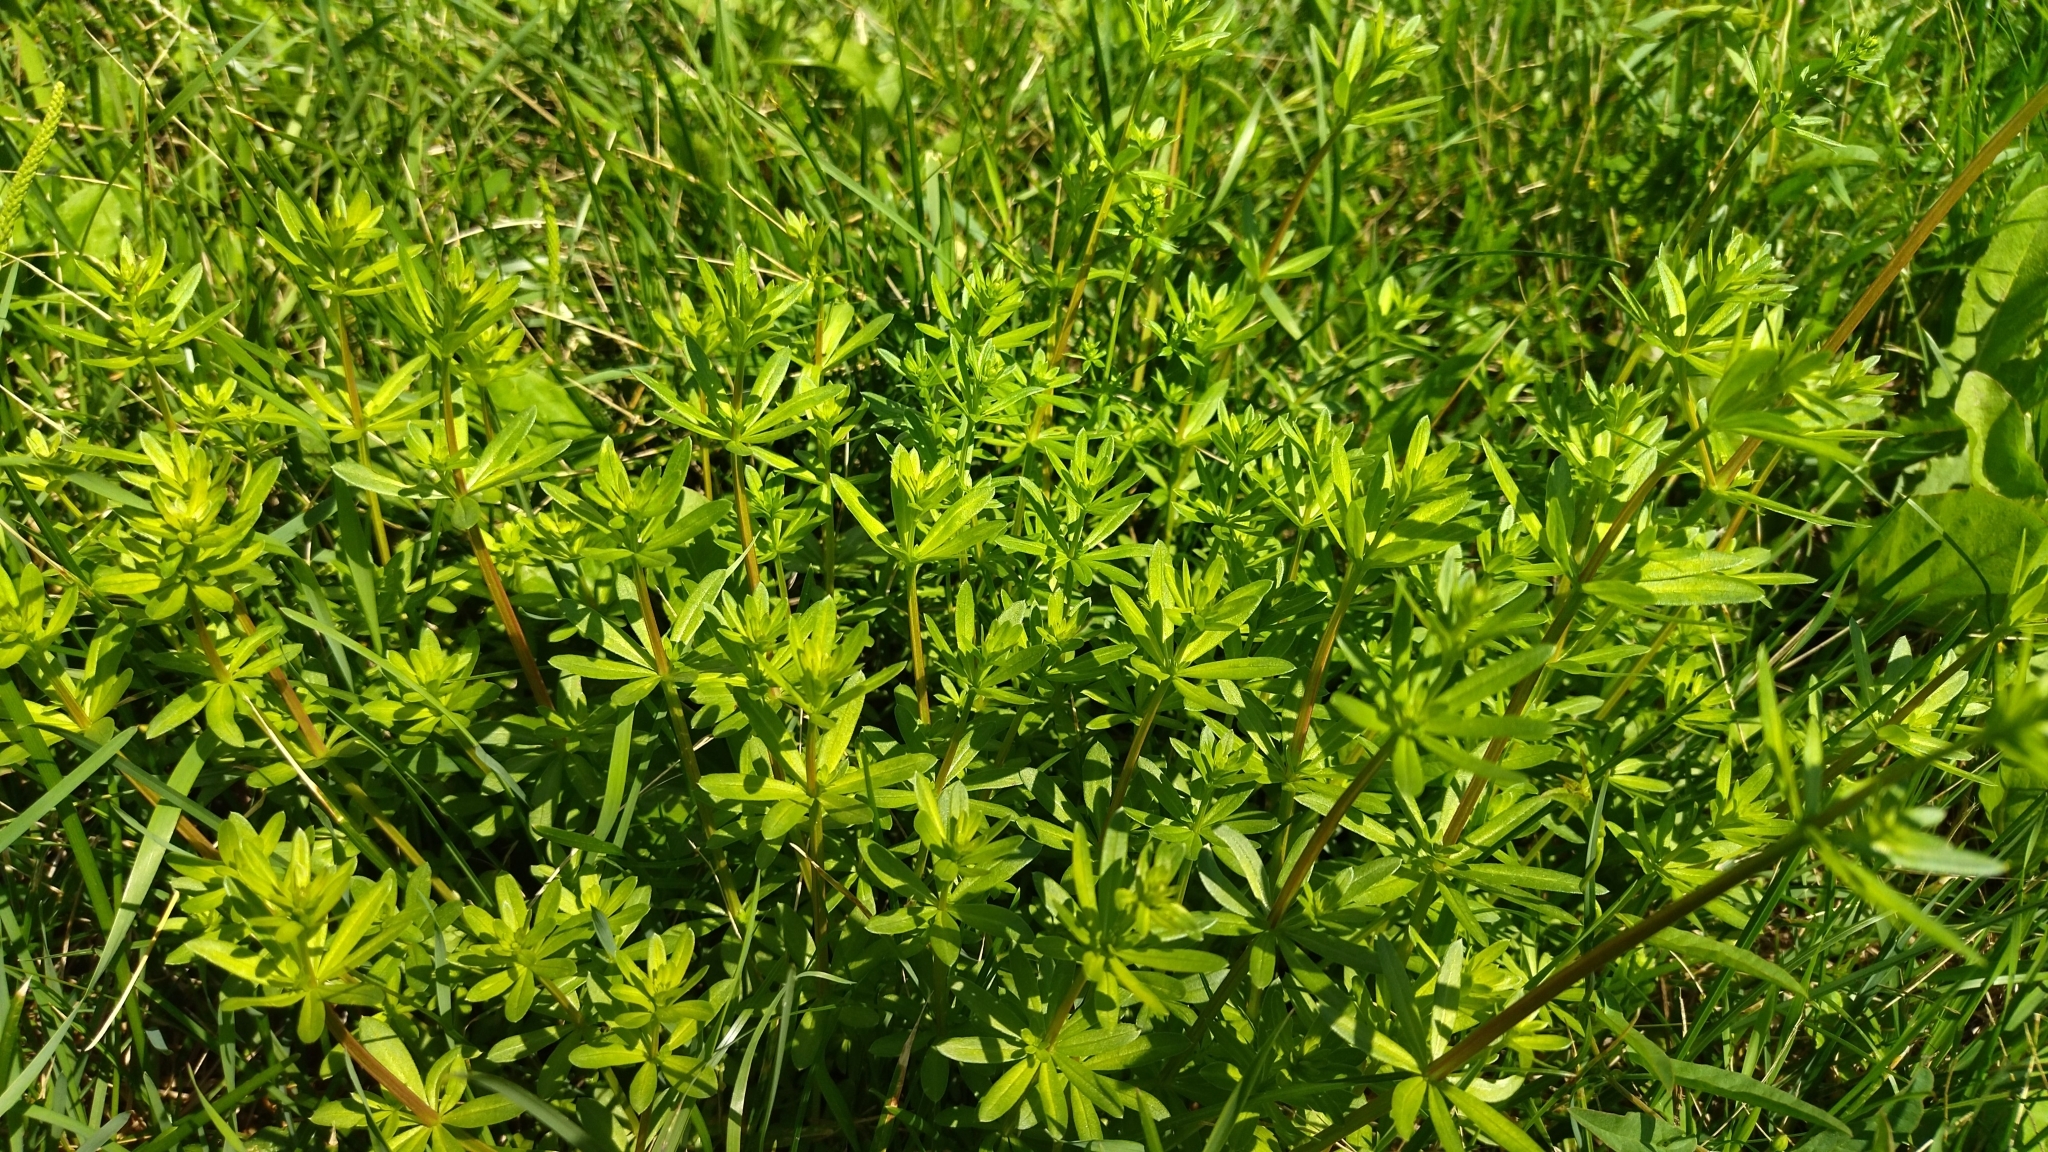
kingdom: Plantae
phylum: Tracheophyta
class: Magnoliopsida
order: Gentianales
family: Rubiaceae
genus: Galium
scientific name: Galium mollugo
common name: Hedge bedstraw
